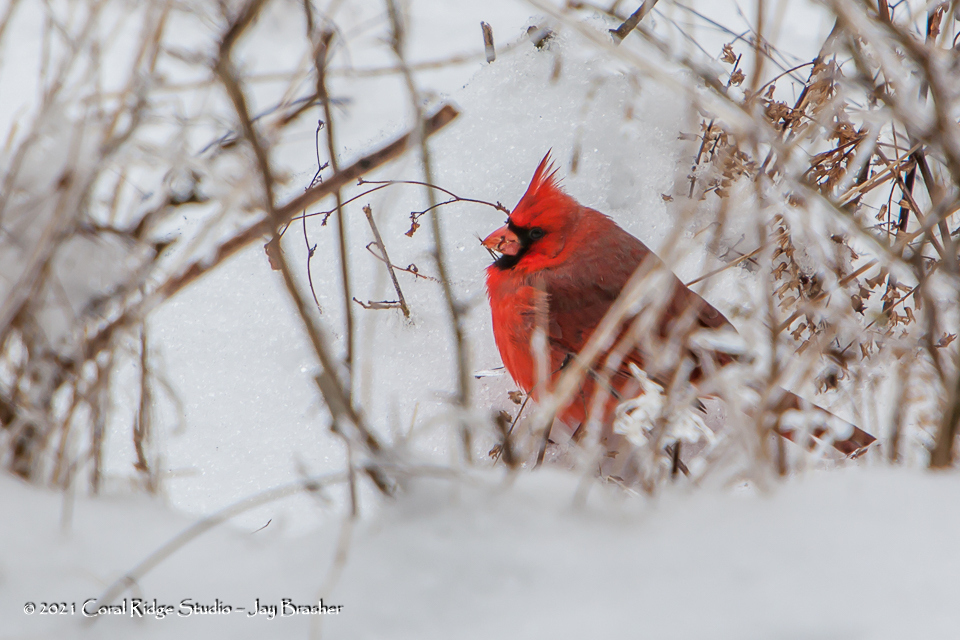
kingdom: Animalia
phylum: Chordata
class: Aves
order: Passeriformes
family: Cardinalidae
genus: Cardinalis
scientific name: Cardinalis cardinalis
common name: Northern cardinal
